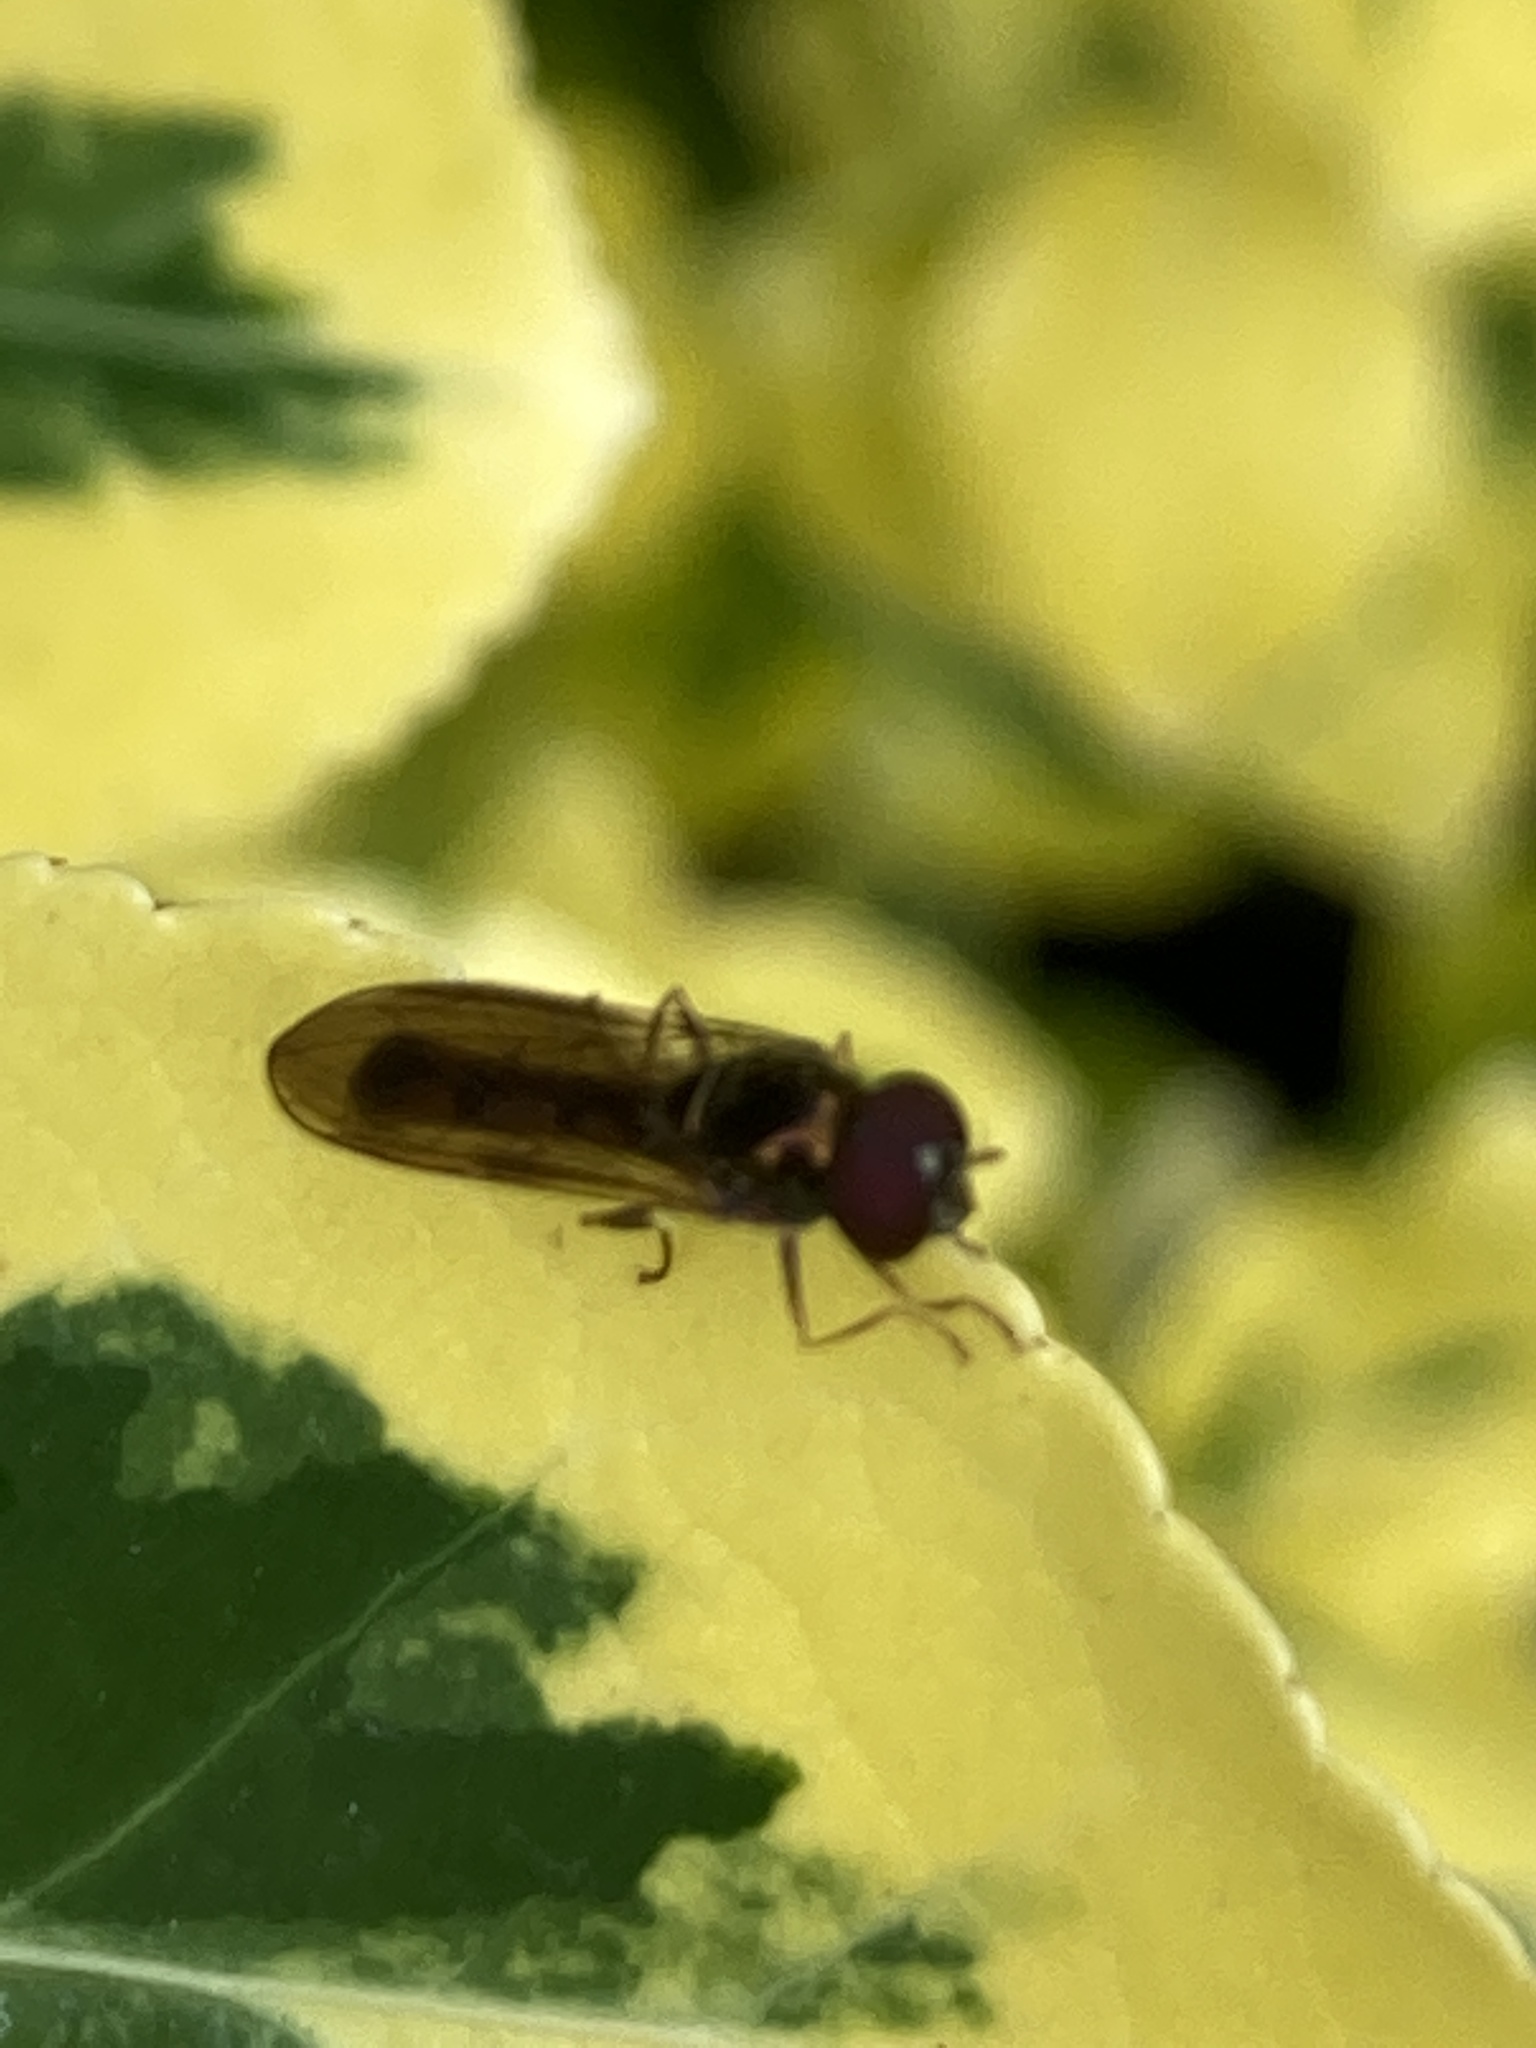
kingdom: Animalia
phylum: Arthropoda
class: Insecta
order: Diptera
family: Syrphidae
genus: Melanostoma
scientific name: Melanostoma scalare
